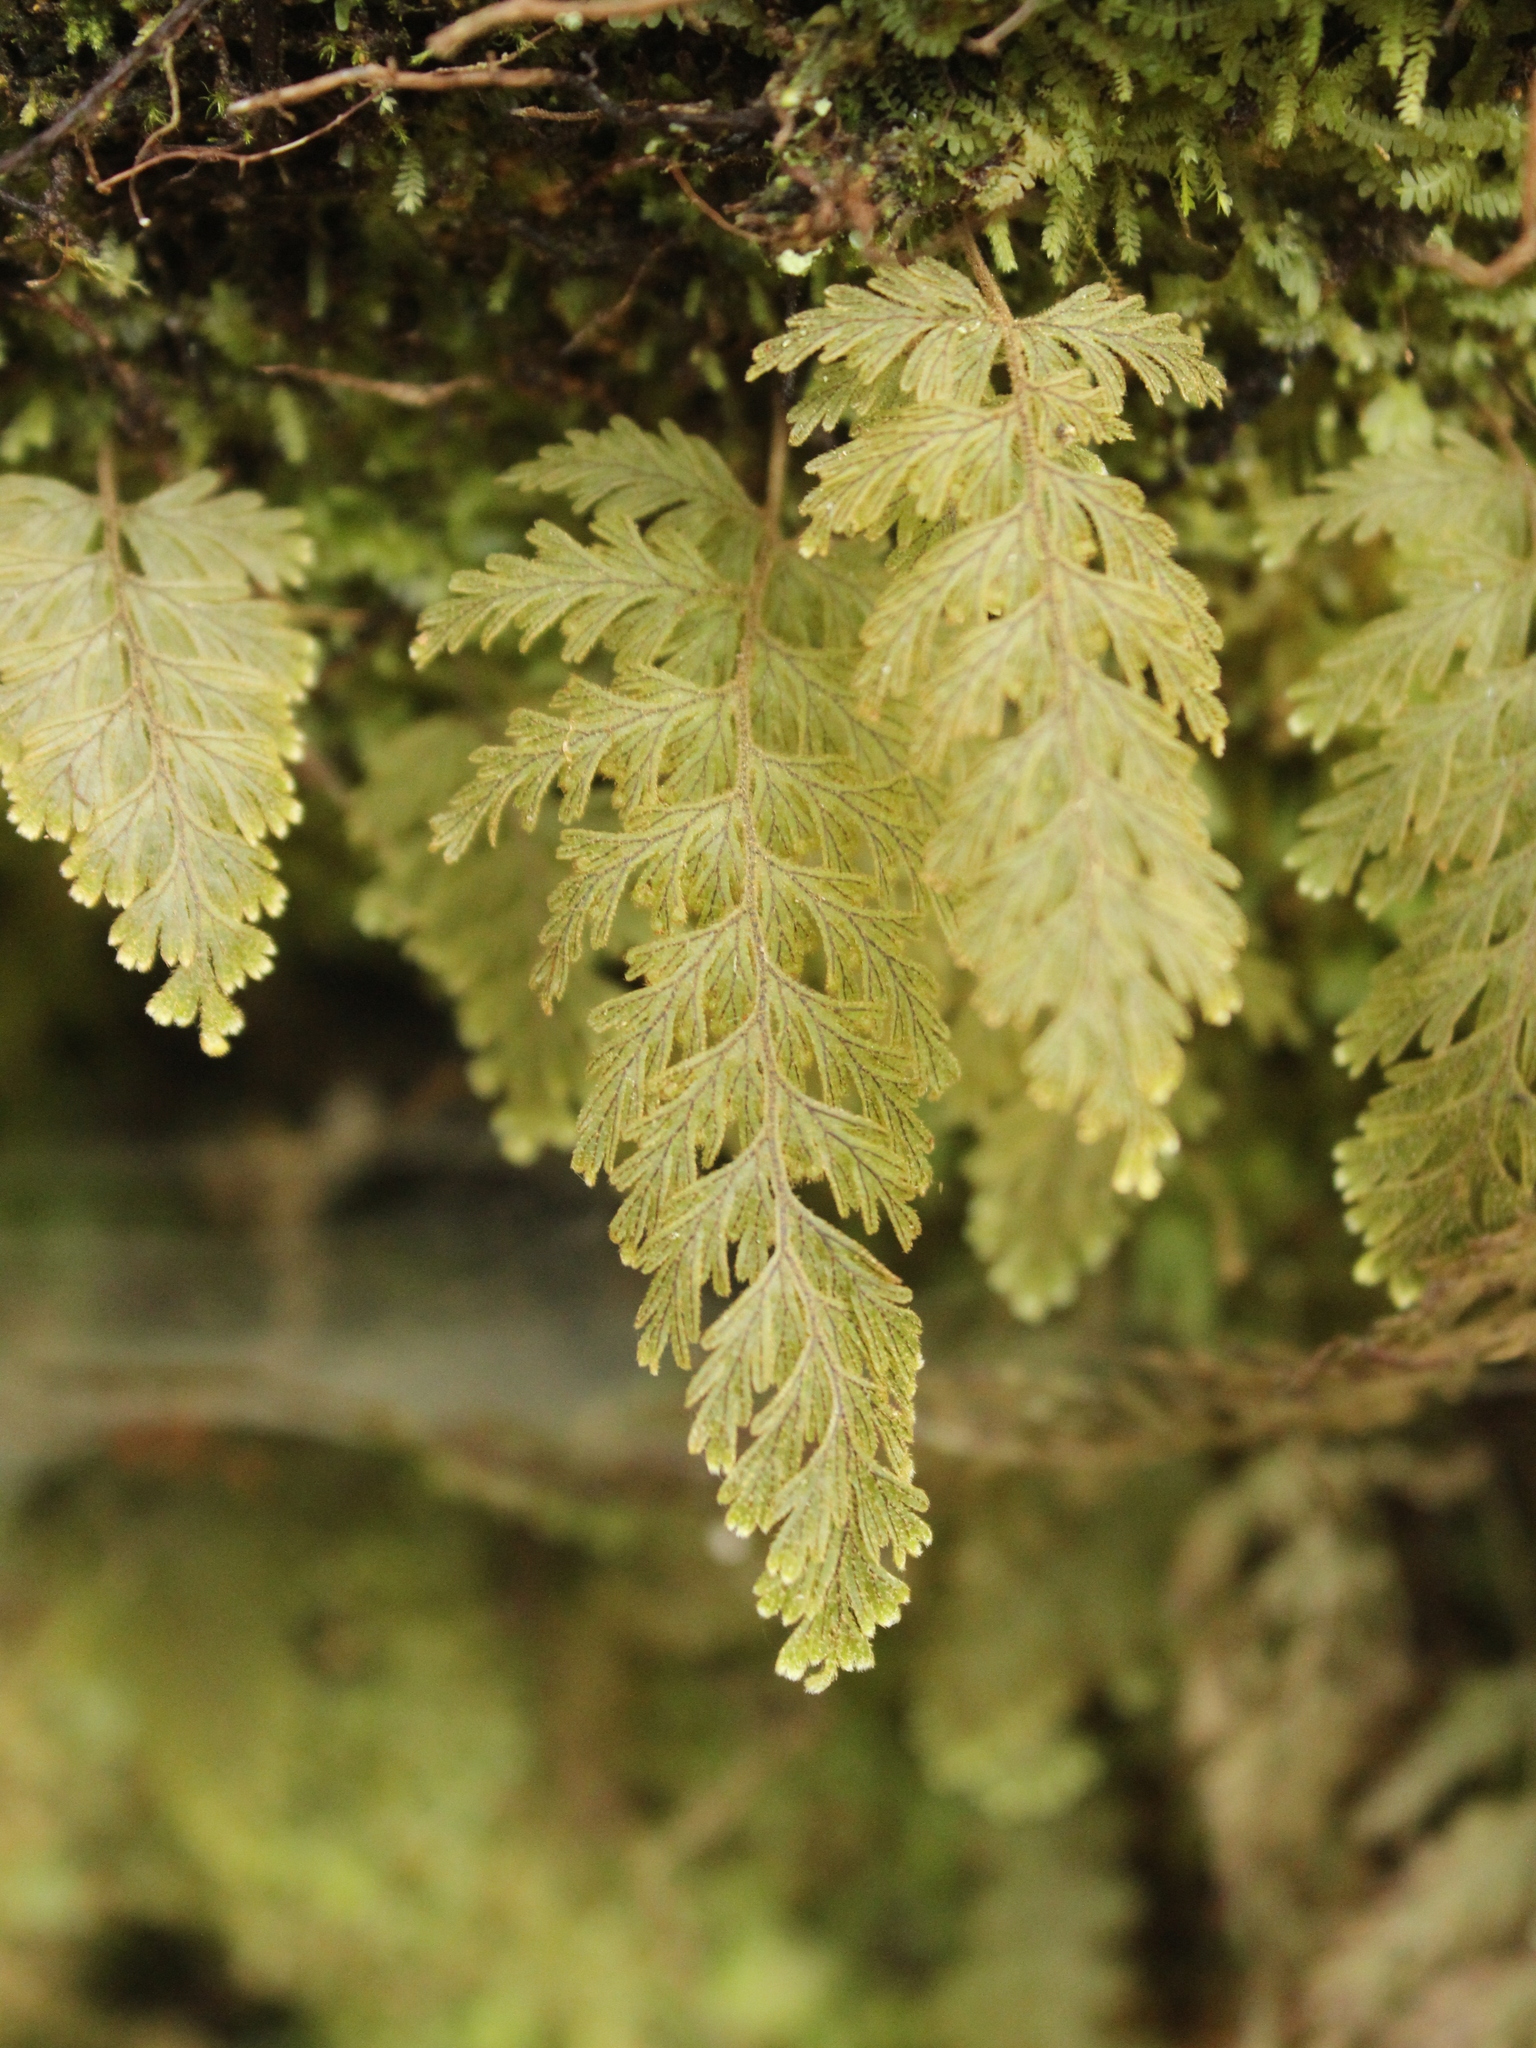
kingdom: Plantae
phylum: Tracheophyta
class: Polypodiopsida
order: Hymenophyllales
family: Hymenophyllaceae
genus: Hymenophyllum
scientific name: Hymenophyllum frankliniae
